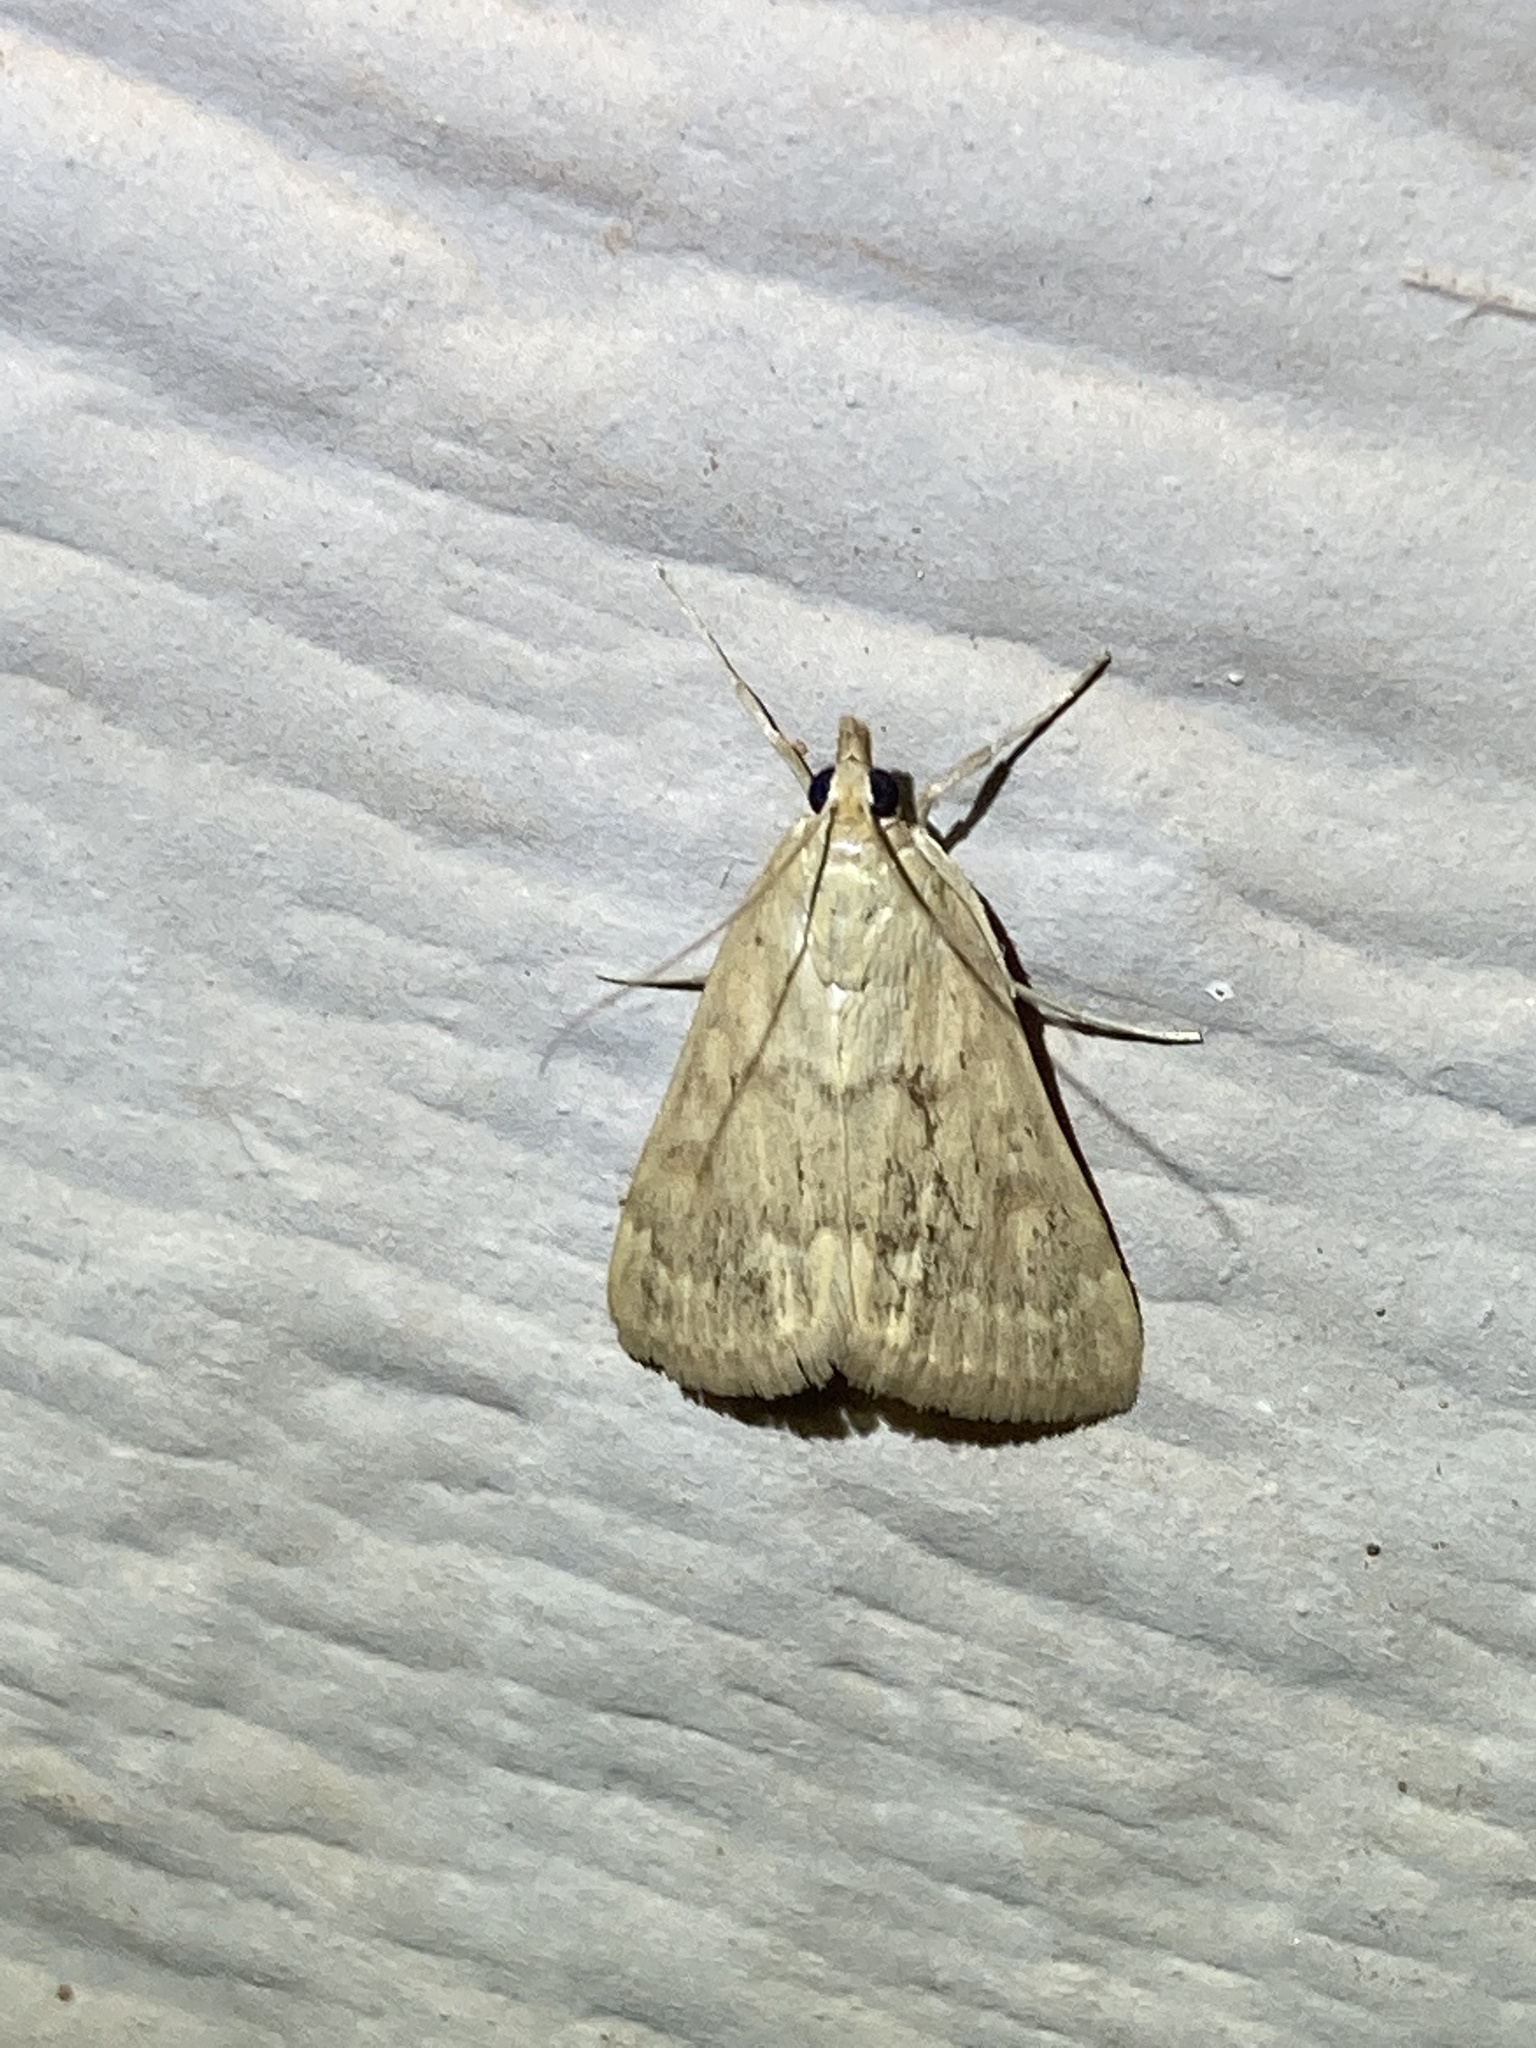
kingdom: Animalia
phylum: Arthropoda
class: Insecta
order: Lepidoptera
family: Crambidae
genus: Achyra
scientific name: Achyra rantalis
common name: Garden webworm
